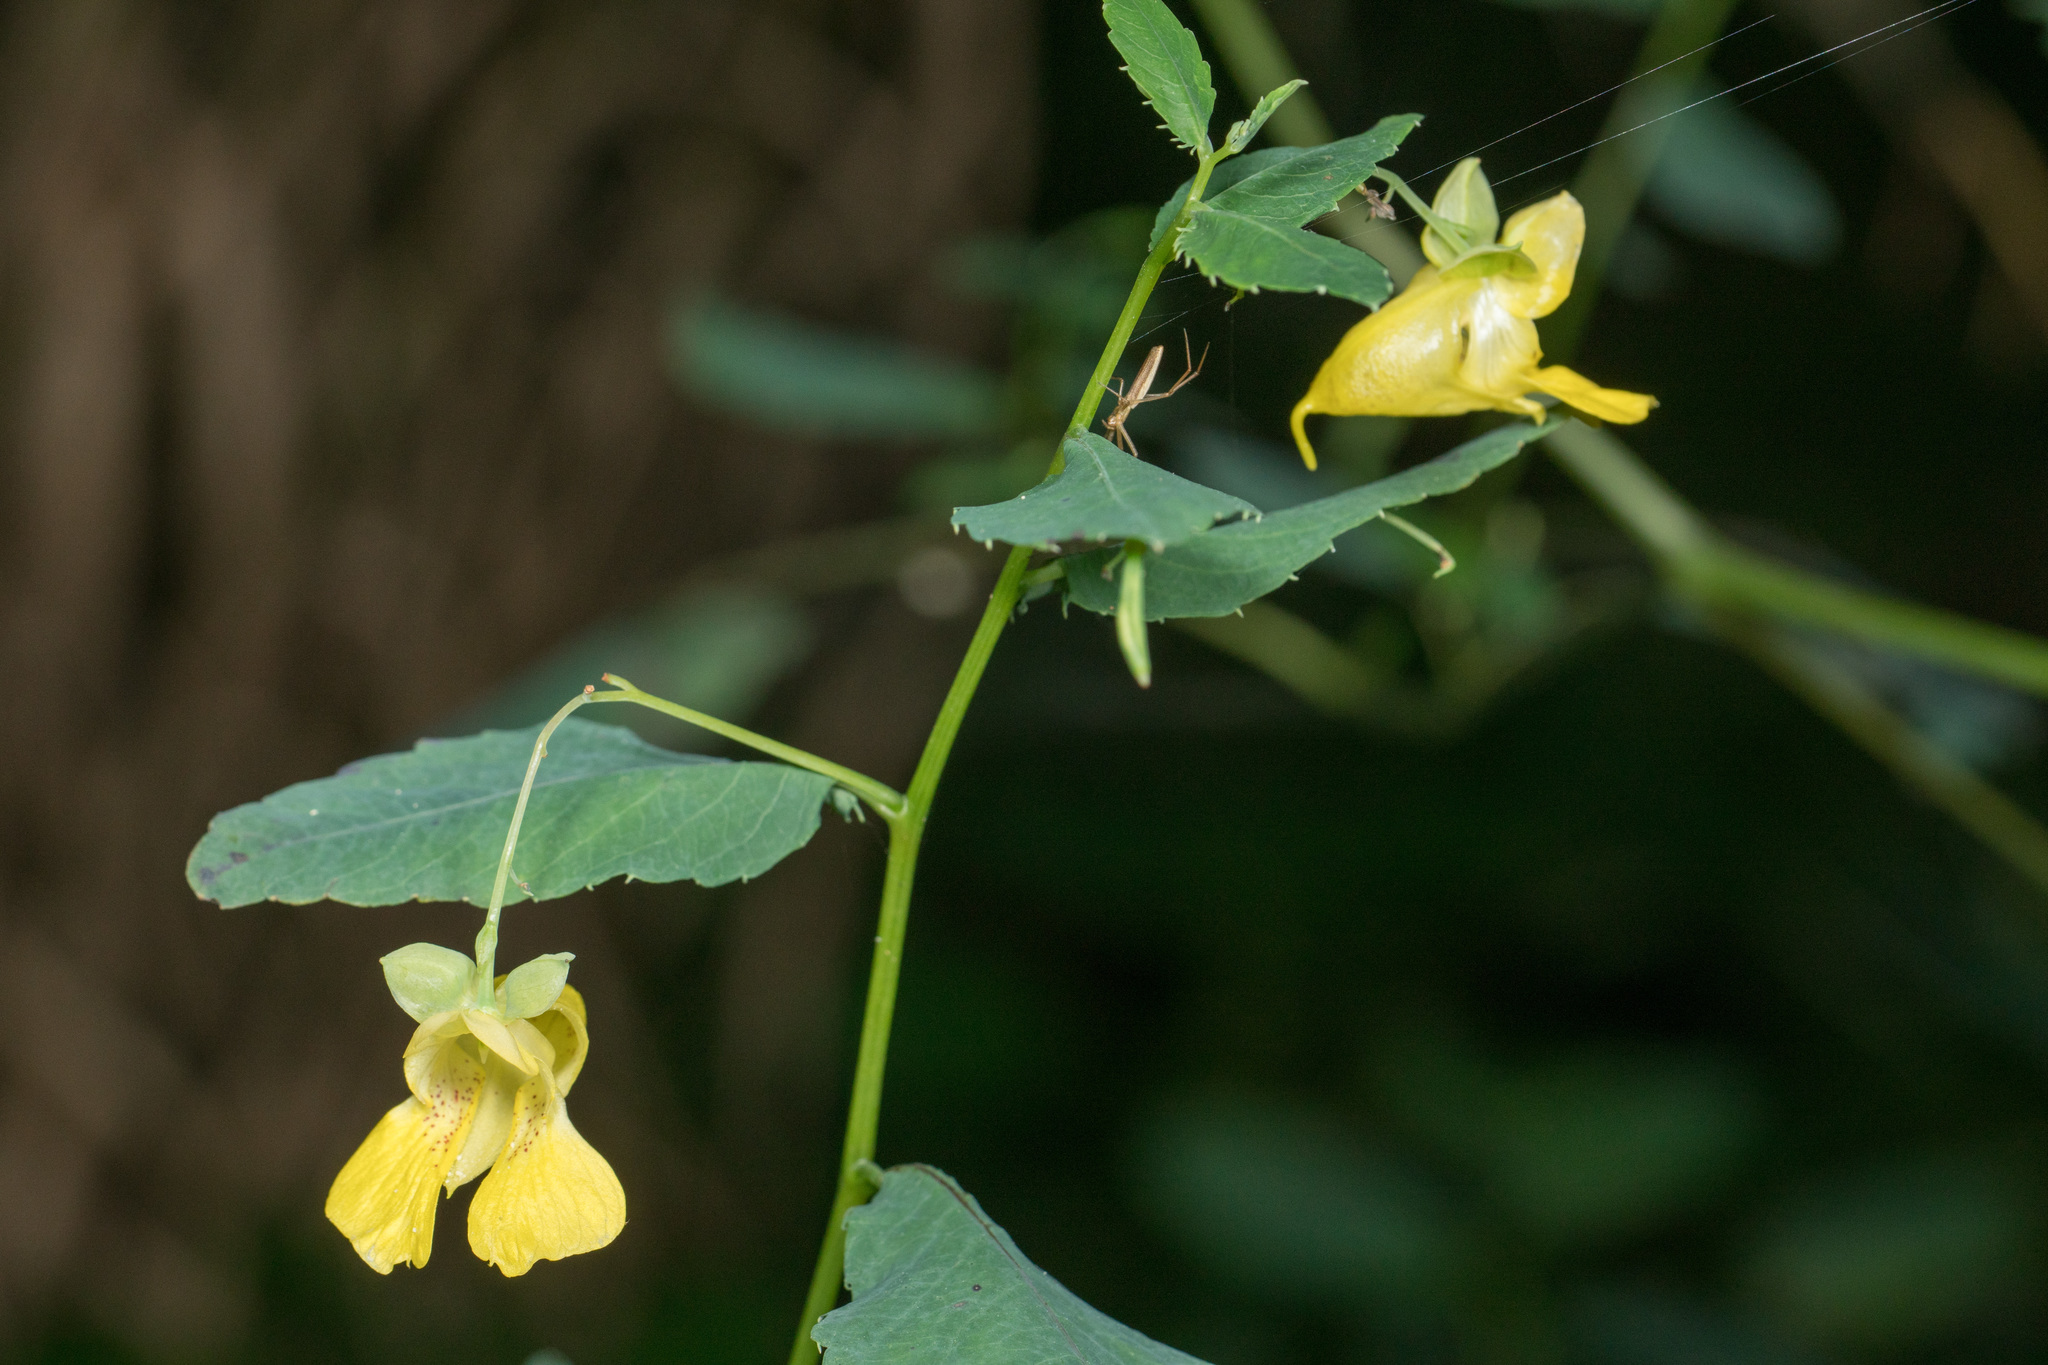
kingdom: Plantae
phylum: Tracheophyta
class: Magnoliopsida
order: Ericales
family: Balsaminaceae
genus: Impatiens
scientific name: Impatiens pallida
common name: Pale snapweed
